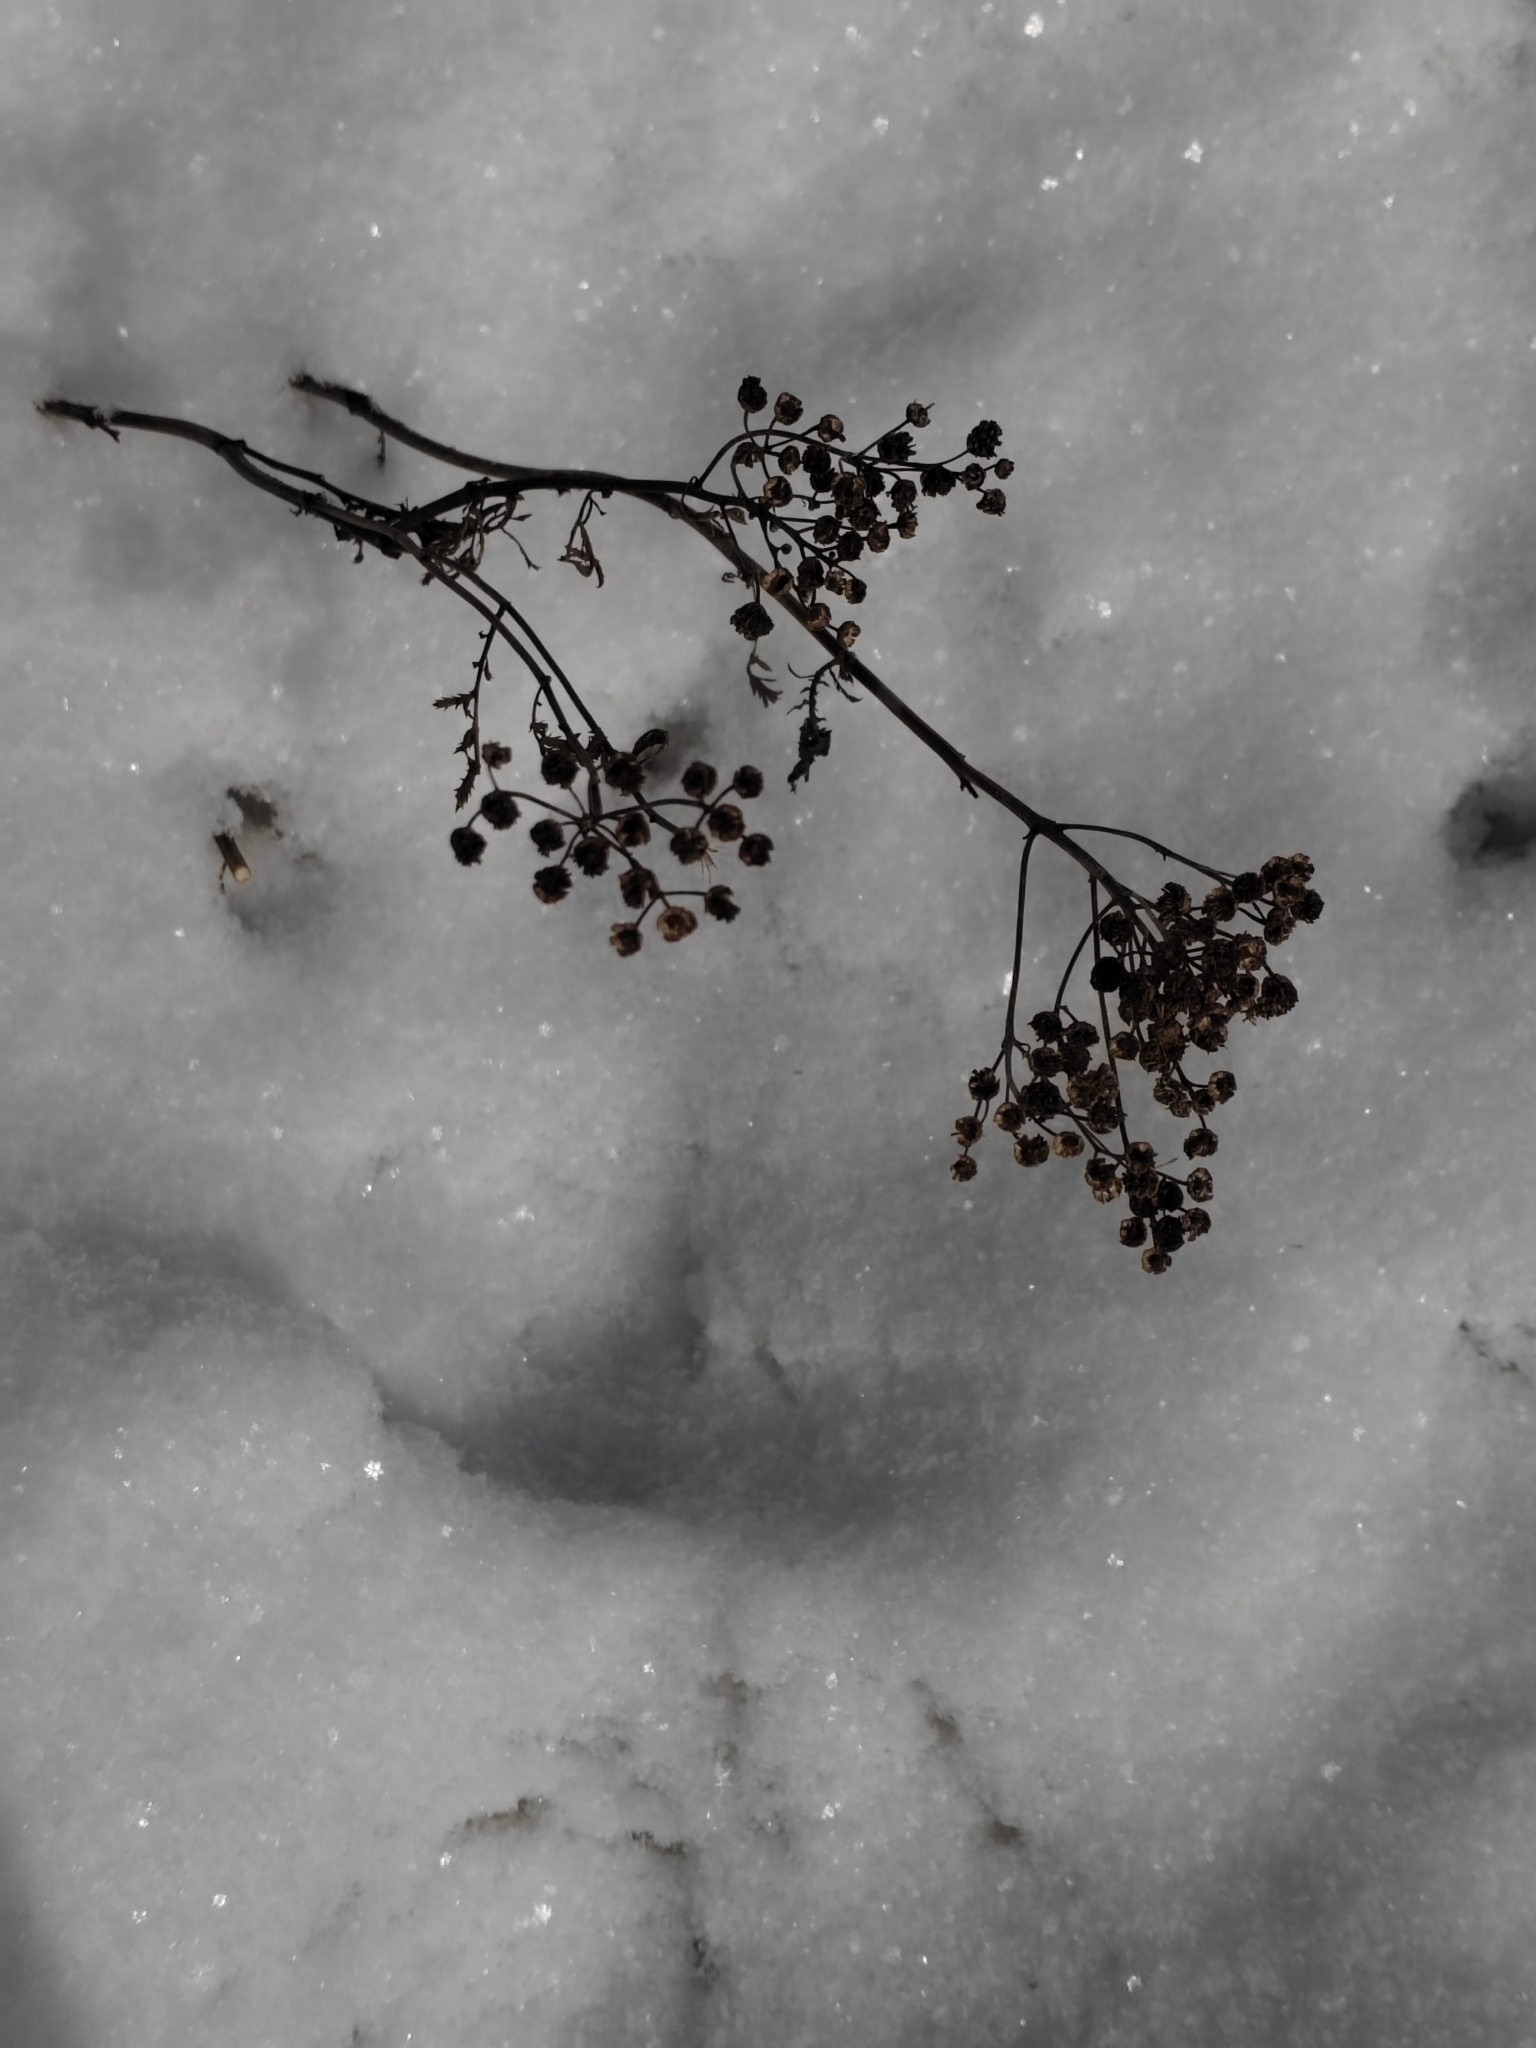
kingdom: Plantae
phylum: Tracheophyta
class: Magnoliopsida
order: Asterales
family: Asteraceae
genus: Tanacetum
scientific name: Tanacetum vulgare
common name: Common tansy
